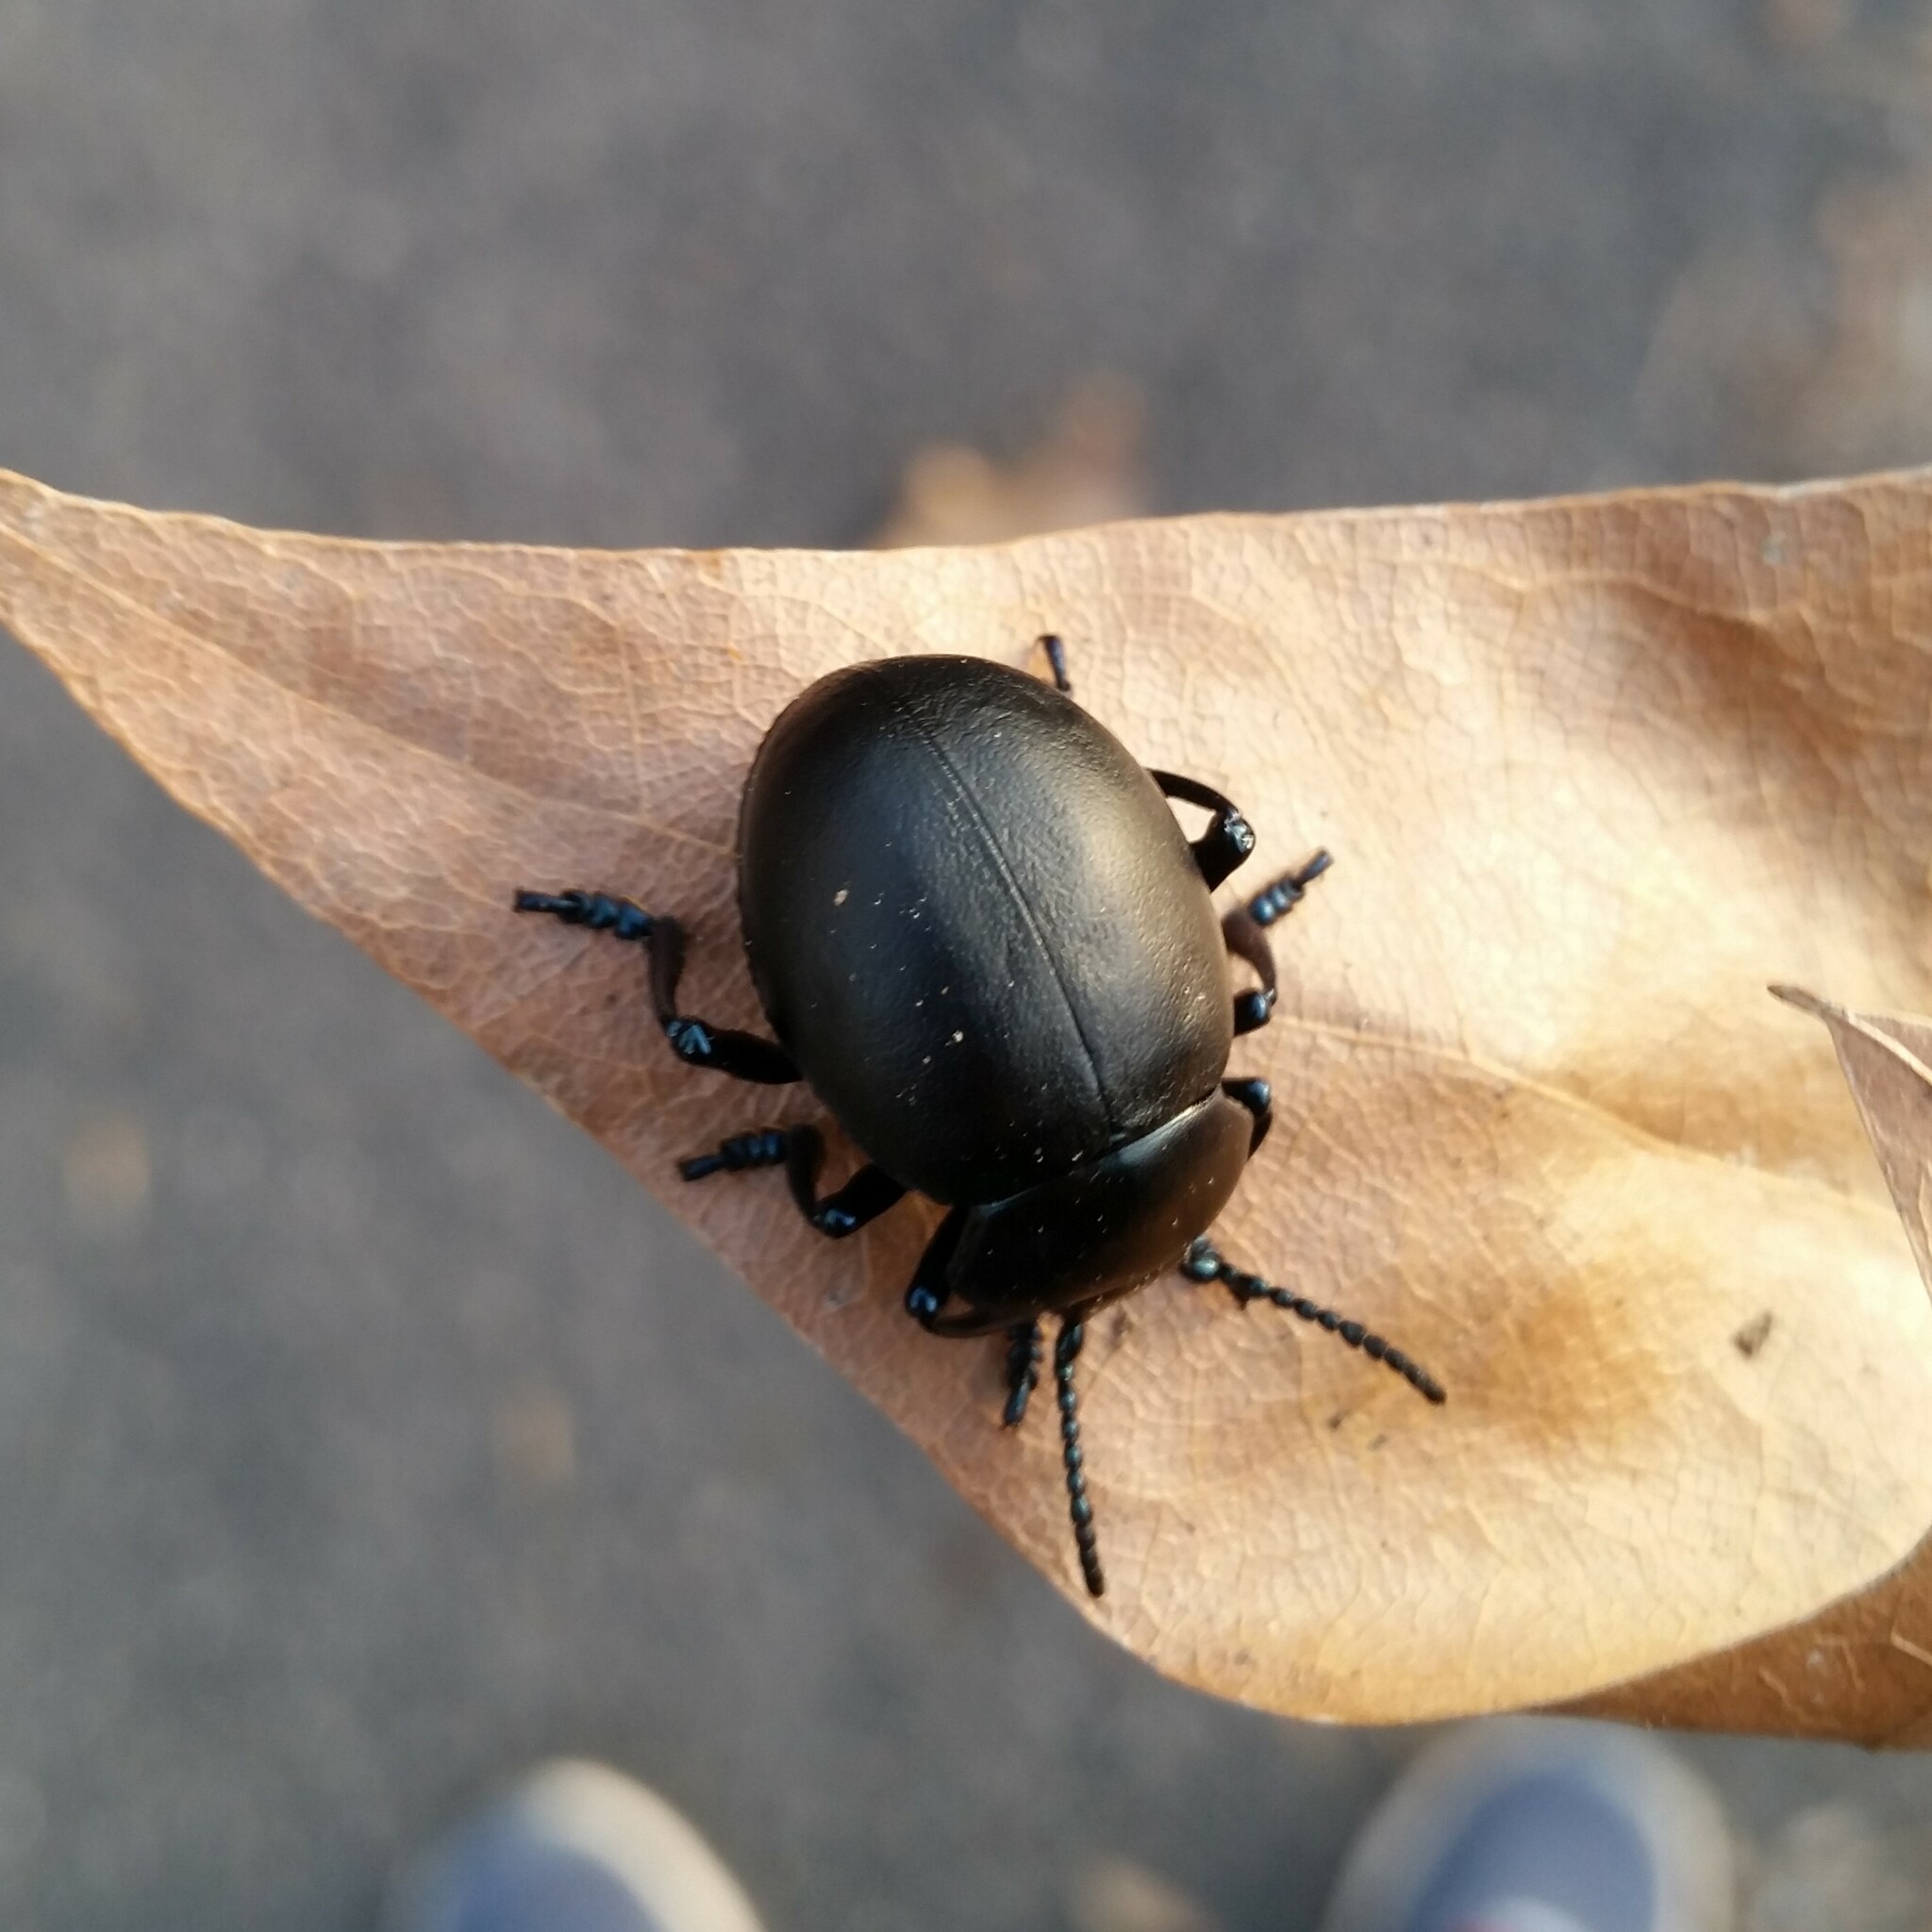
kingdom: Animalia
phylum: Arthropoda
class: Insecta
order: Coleoptera
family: Chrysomelidae
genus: Timarcha
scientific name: Timarcha tenebricosa
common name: Bloody-nosed beetle
